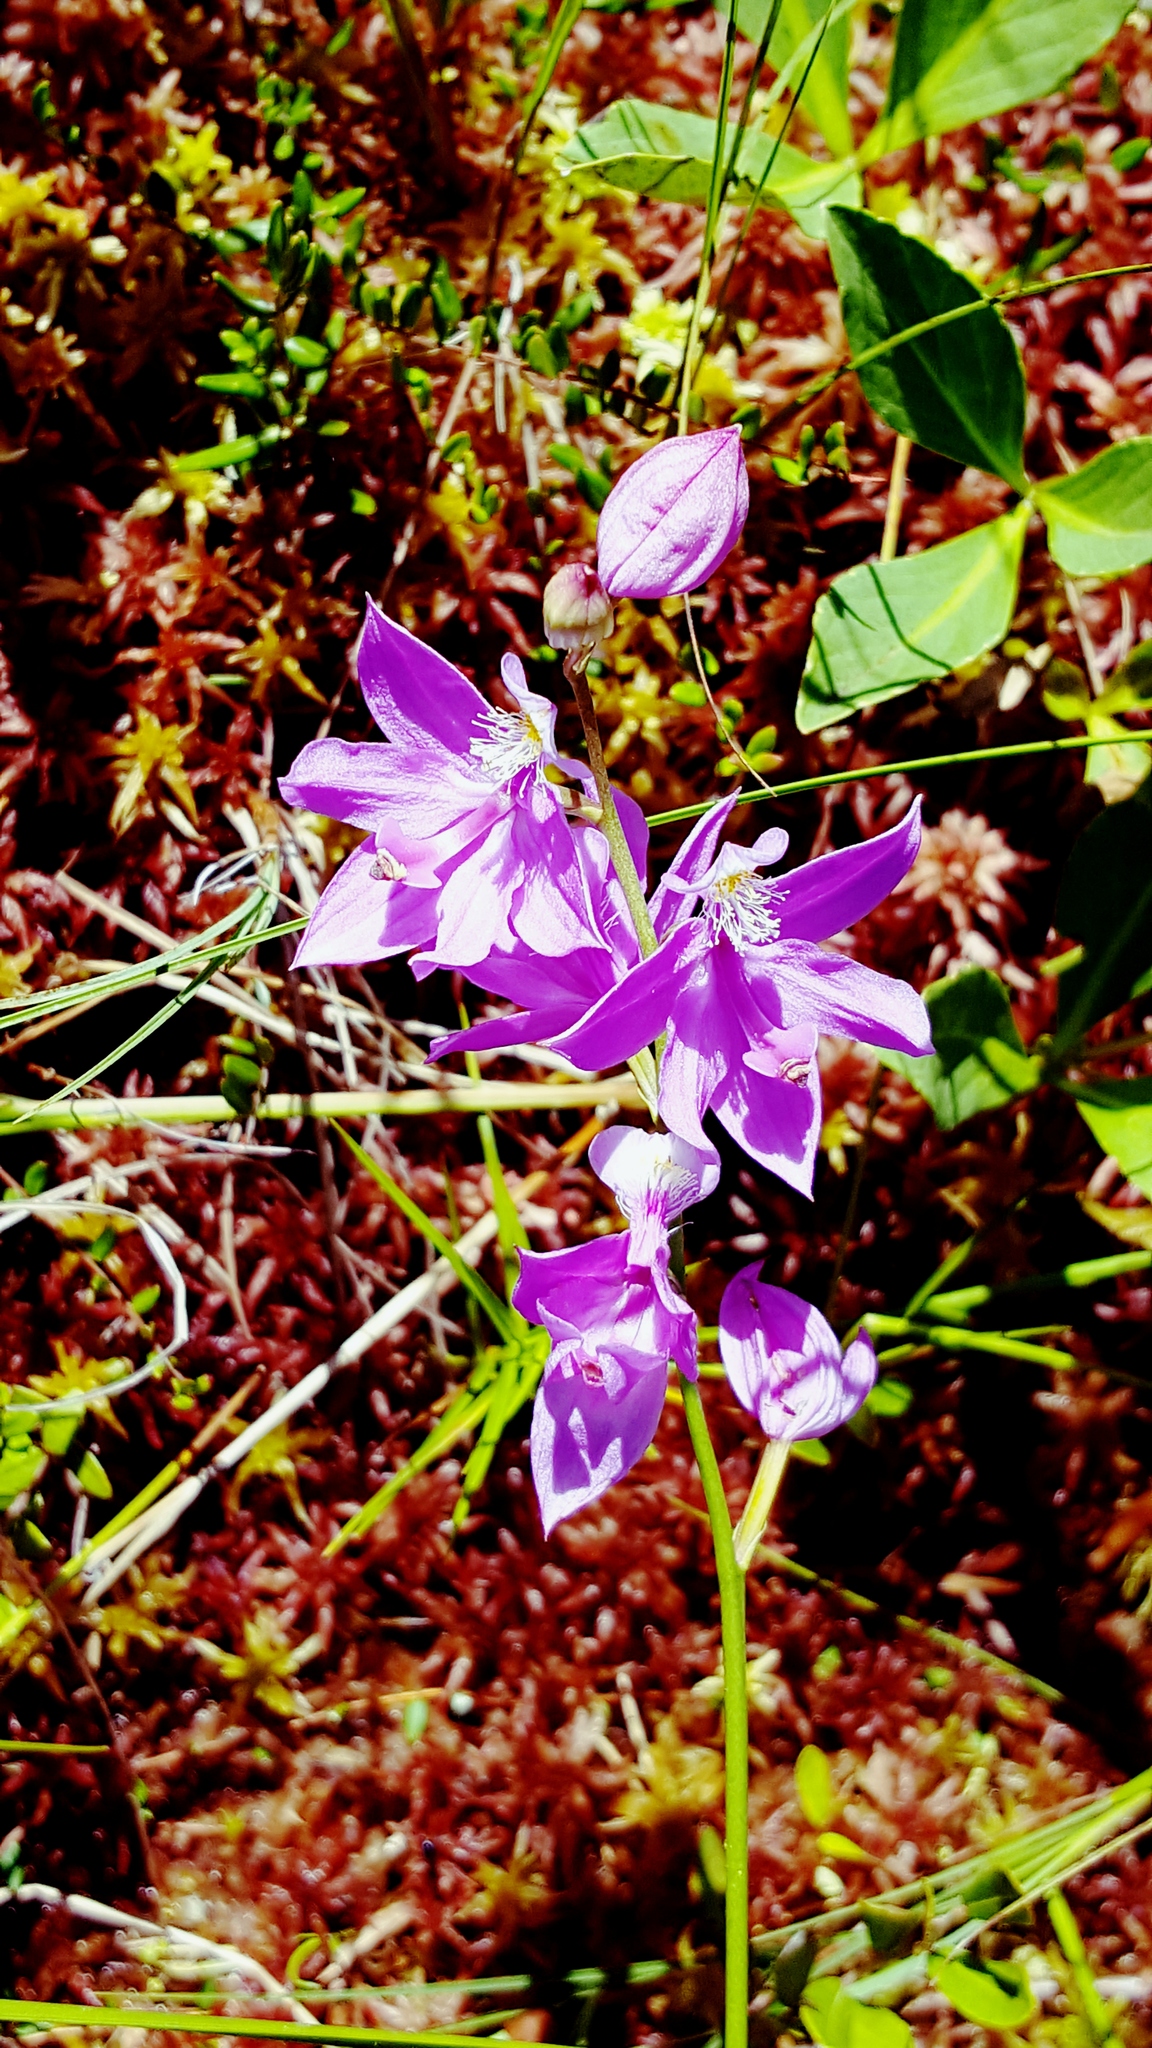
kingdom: Plantae
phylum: Tracheophyta
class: Liliopsida
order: Asparagales
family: Orchidaceae
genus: Calopogon
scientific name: Calopogon tuberosus
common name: Grass-pink
